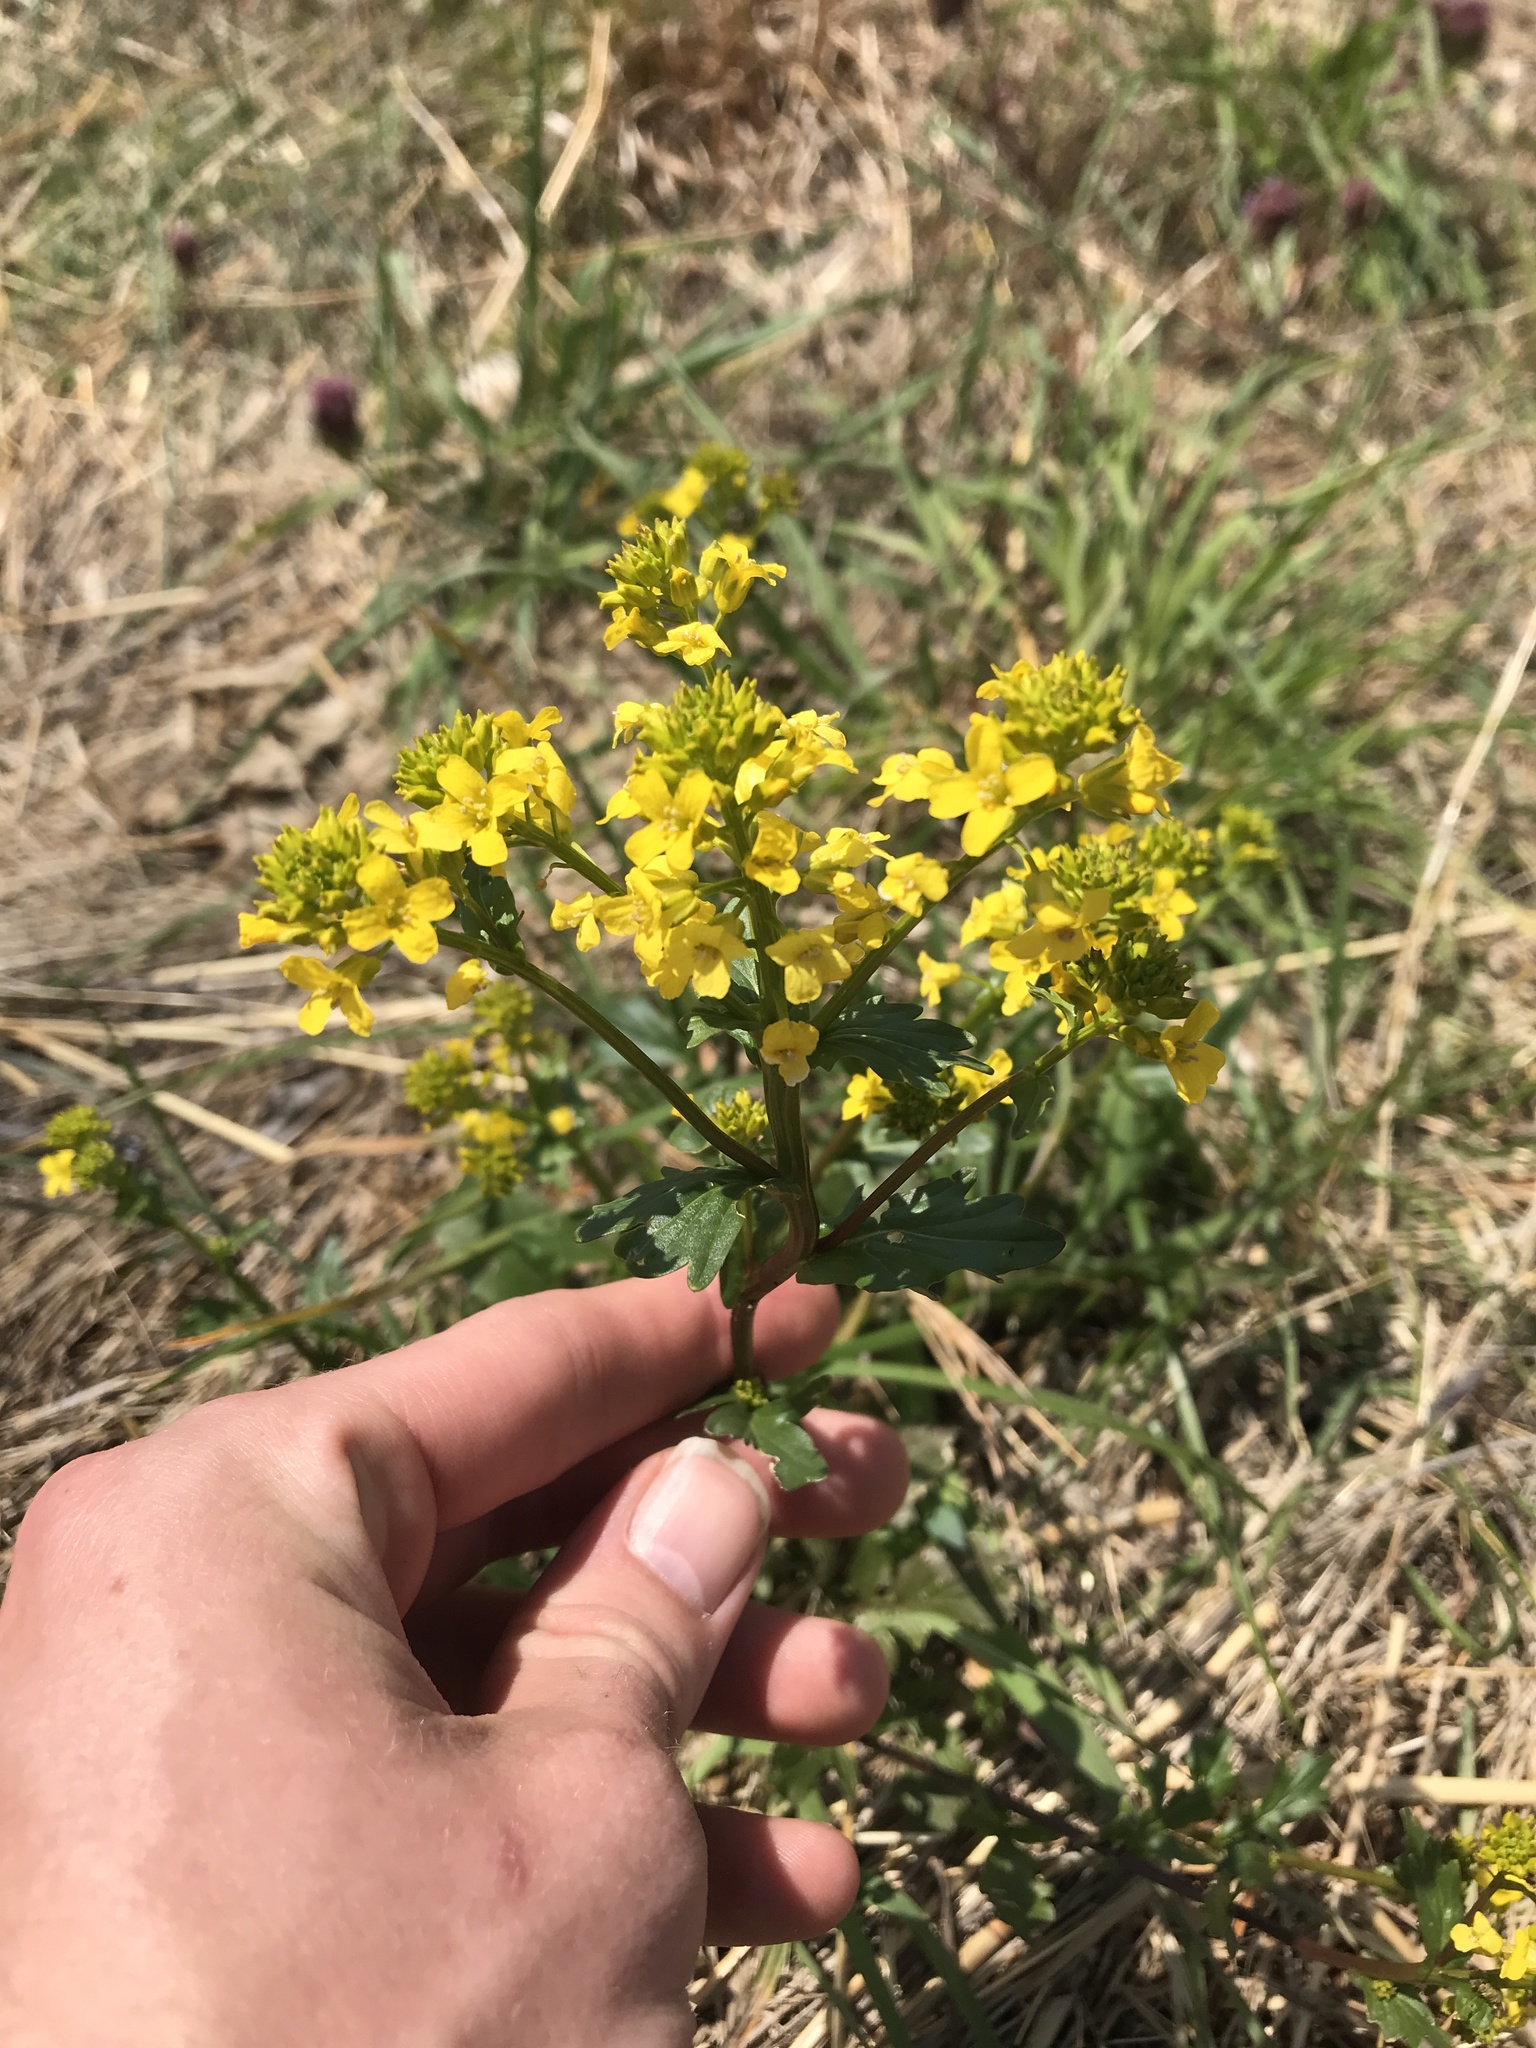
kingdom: Plantae
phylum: Tracheophyta
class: Magnoliopsida
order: Brassicales
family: Brassicaceae
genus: Barbarea
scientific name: Barbarea vulgaris
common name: Cressy-greens
